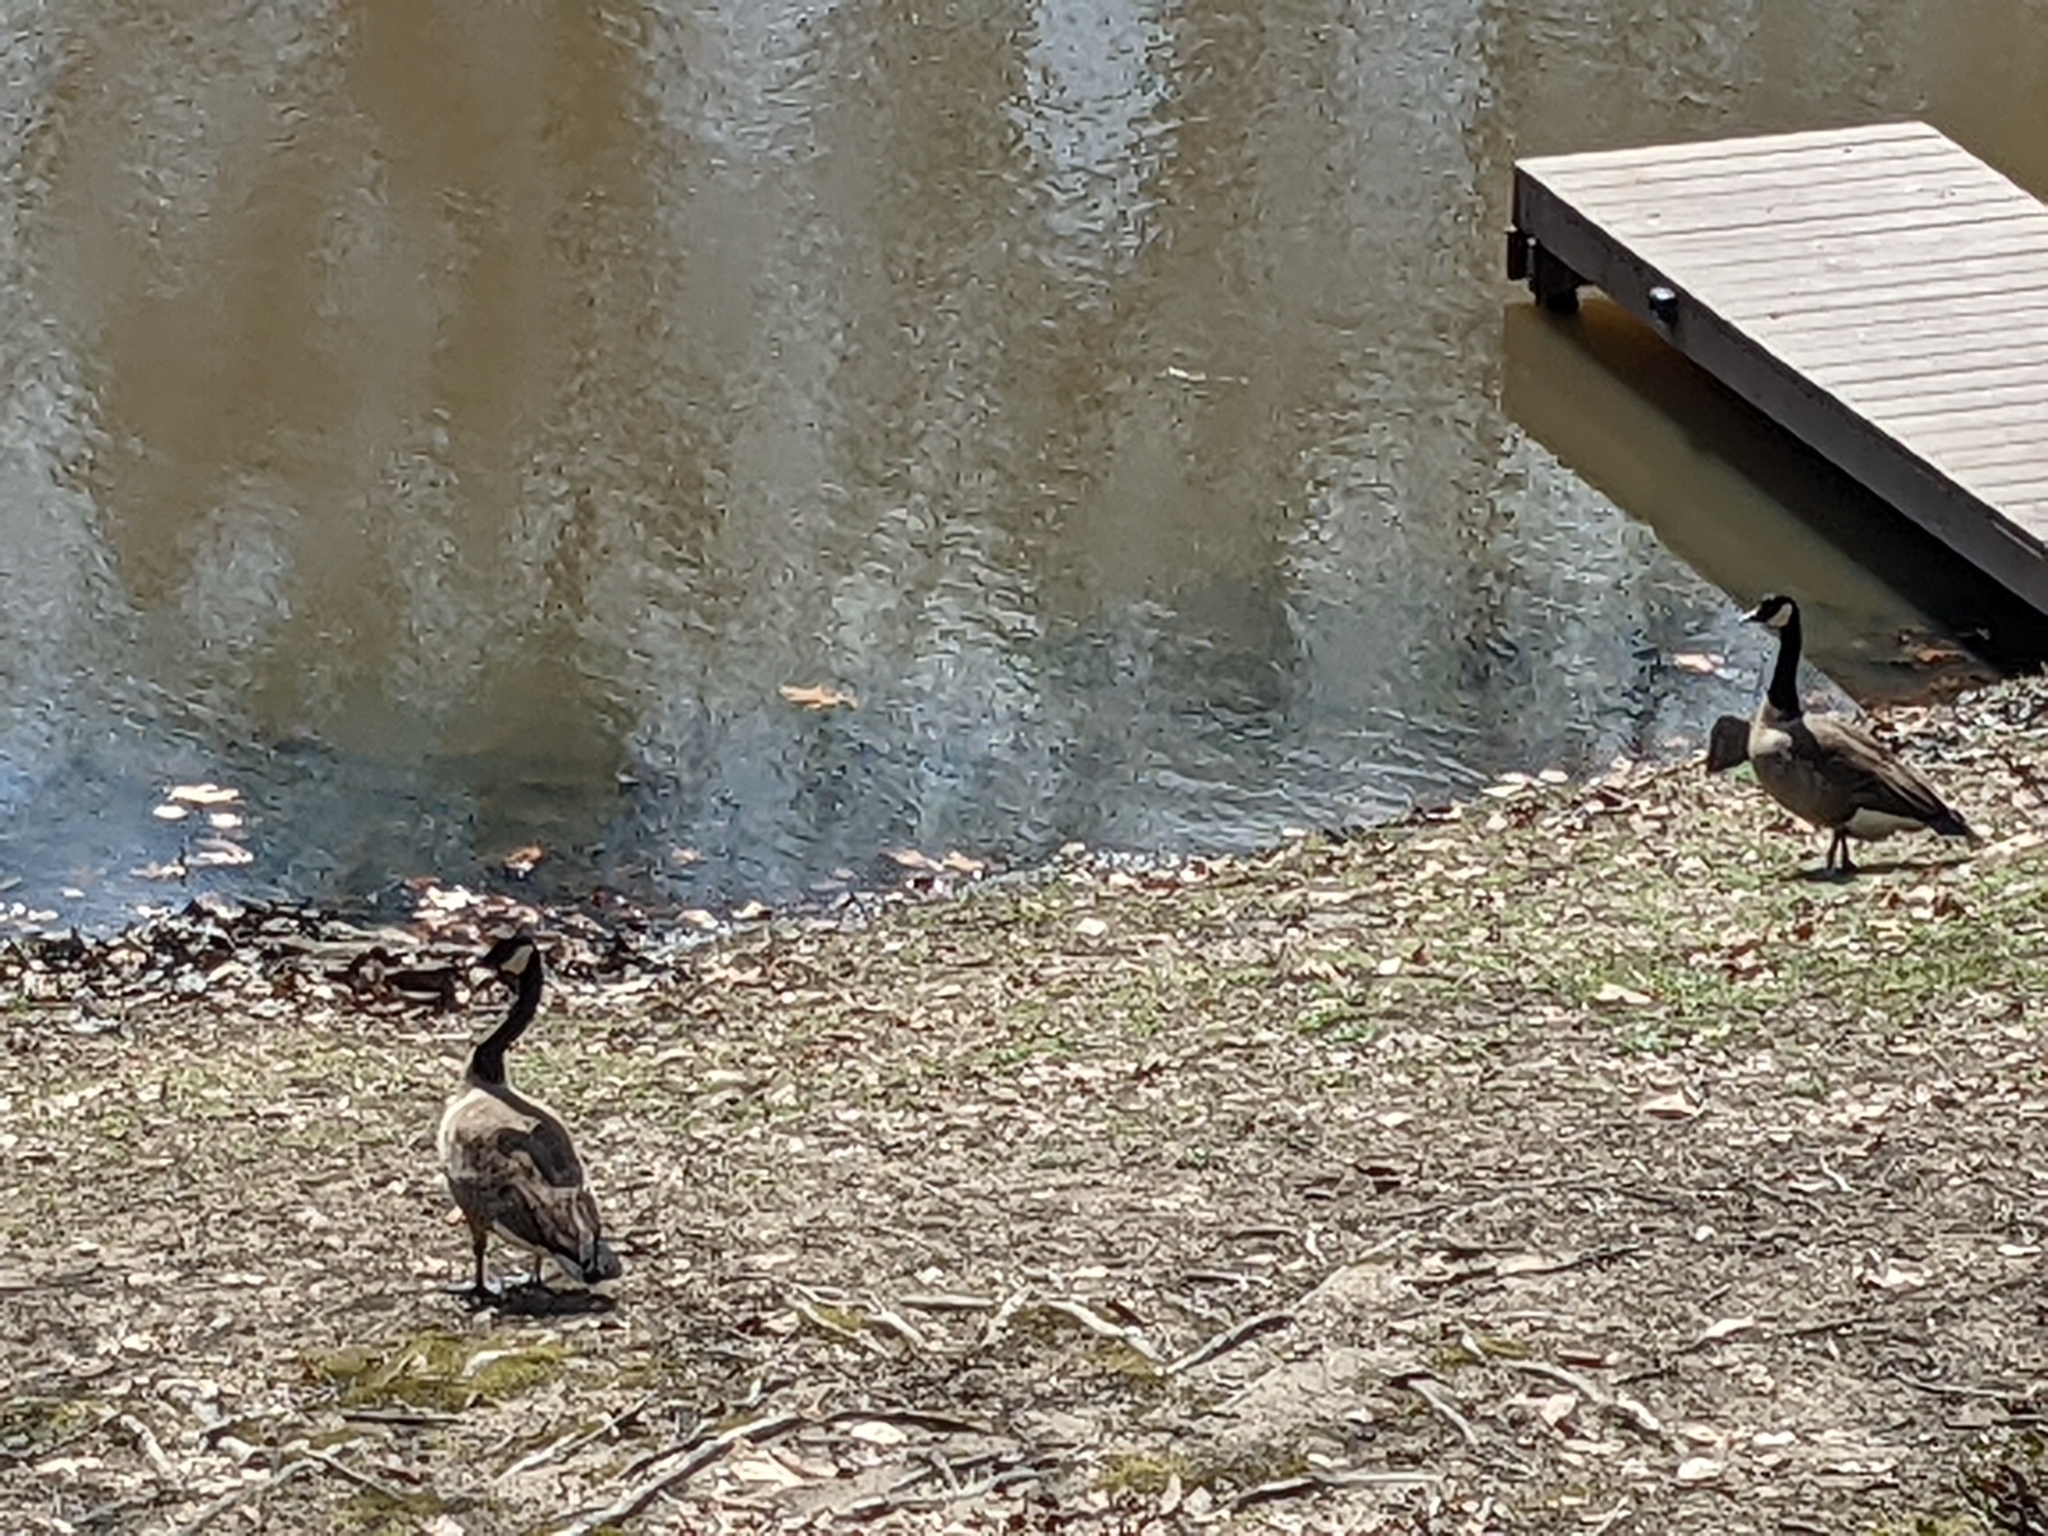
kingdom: Animalia
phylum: Chordata
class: Aves
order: Anseriformes
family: Anatidae
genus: Branta
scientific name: Branta canadensis
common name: Canada goose
